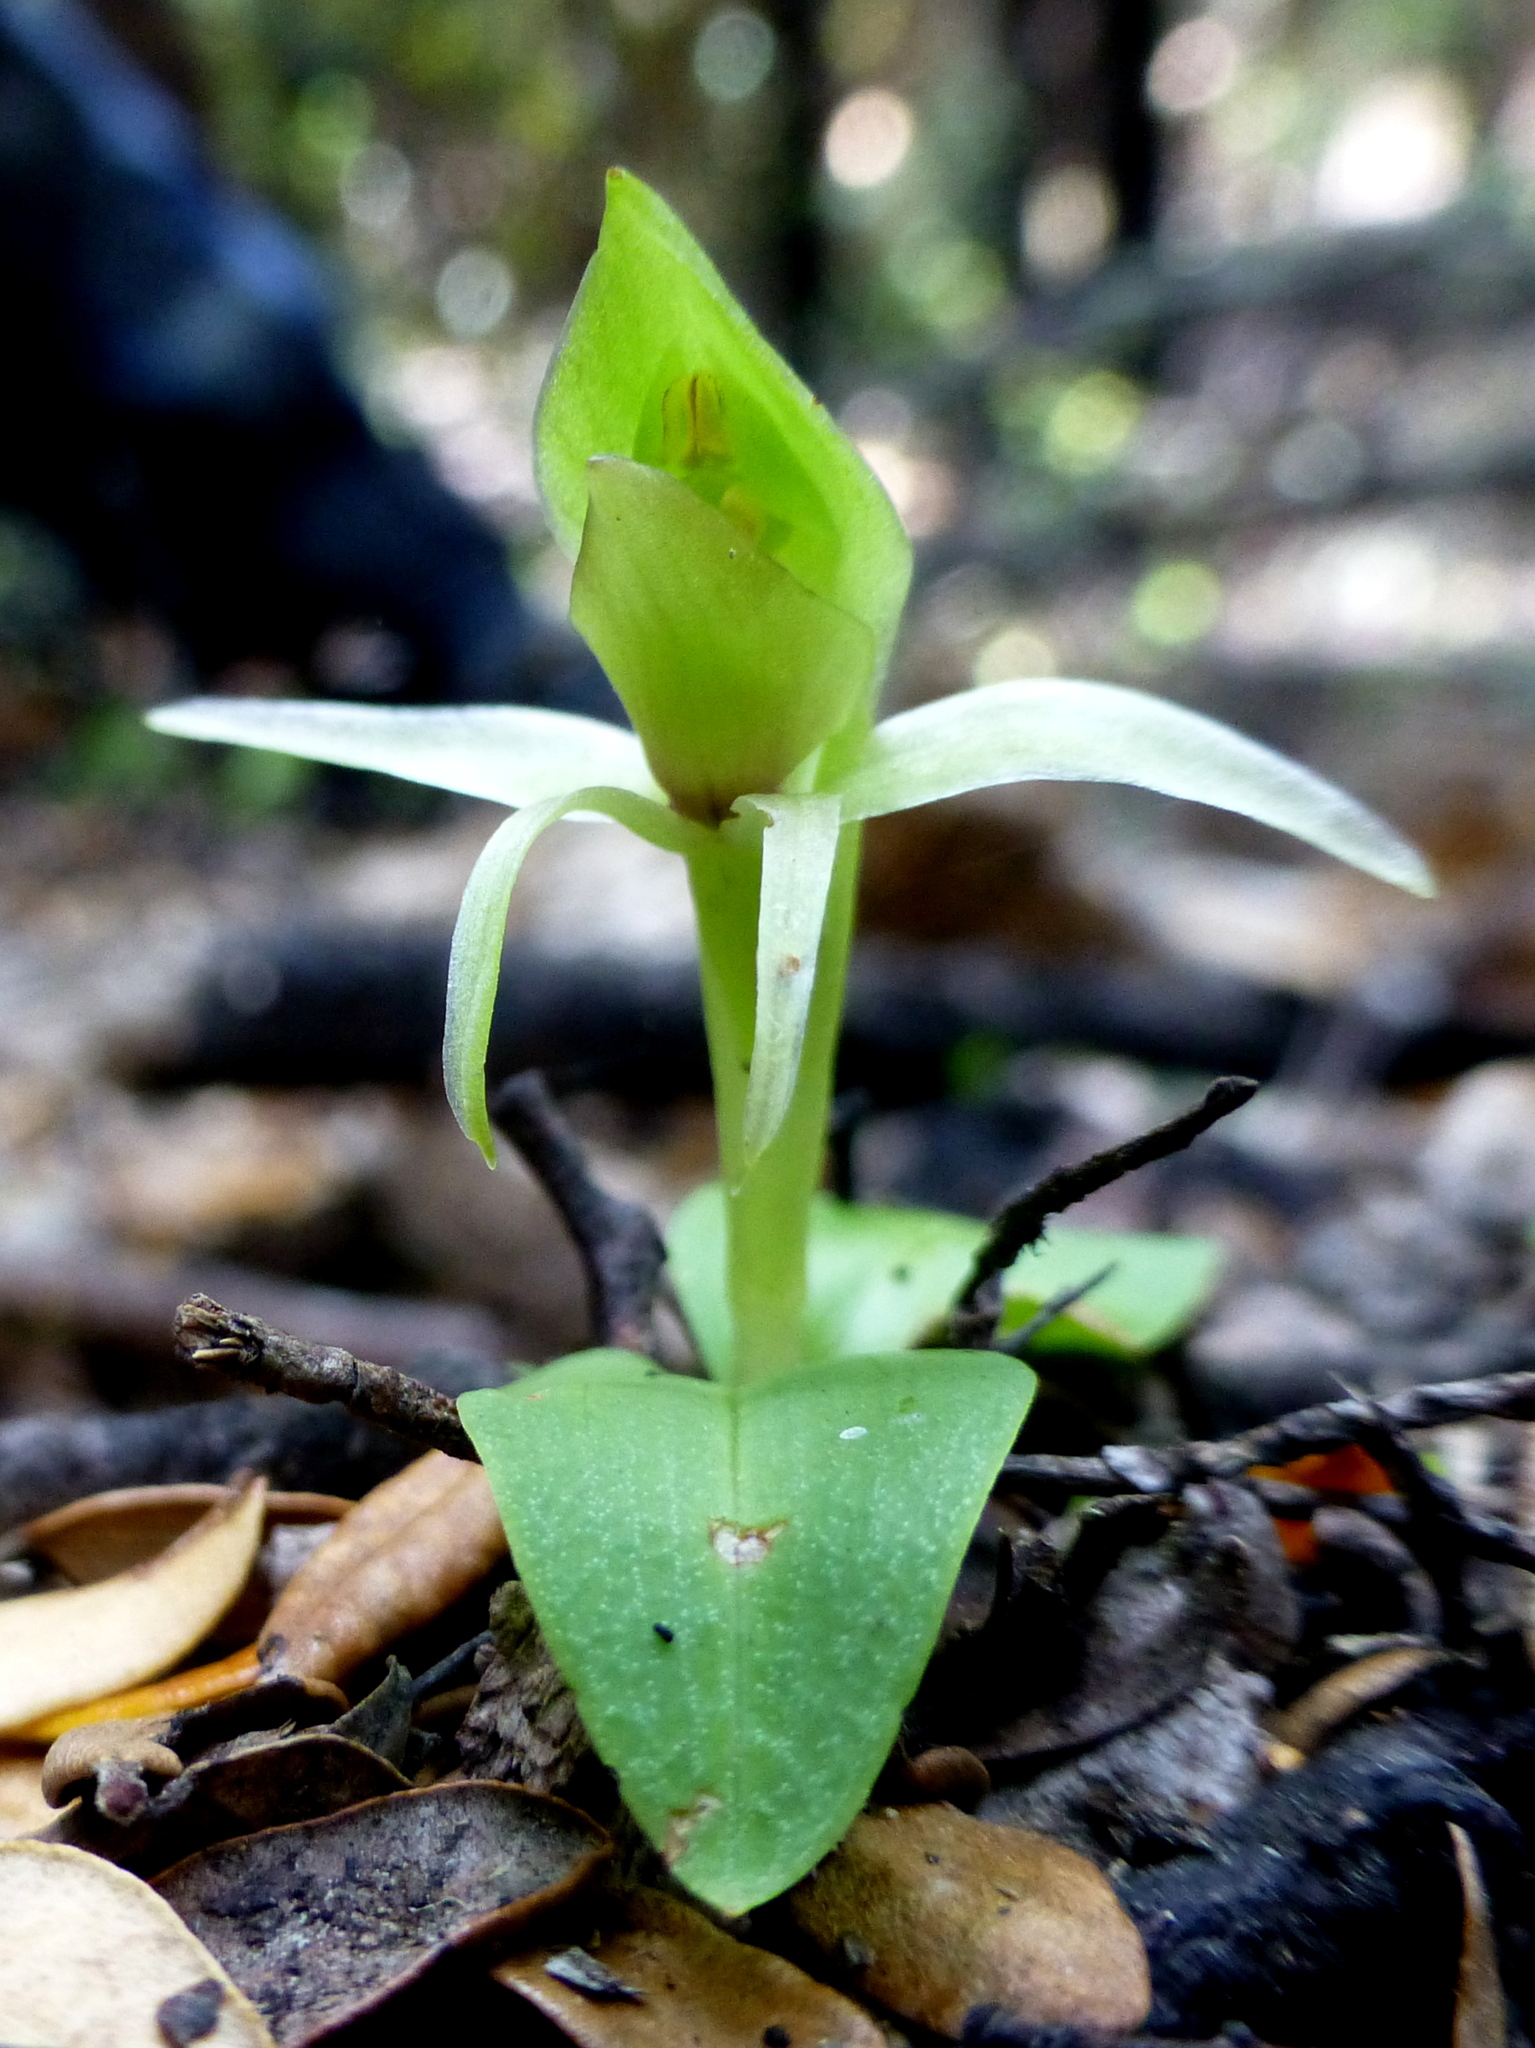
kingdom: Plantae
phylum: Tracheophyta
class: Liliopsida
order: Asparagales
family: Orchidaceae
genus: Chiloglottis
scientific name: Chiloglottis cornuta
